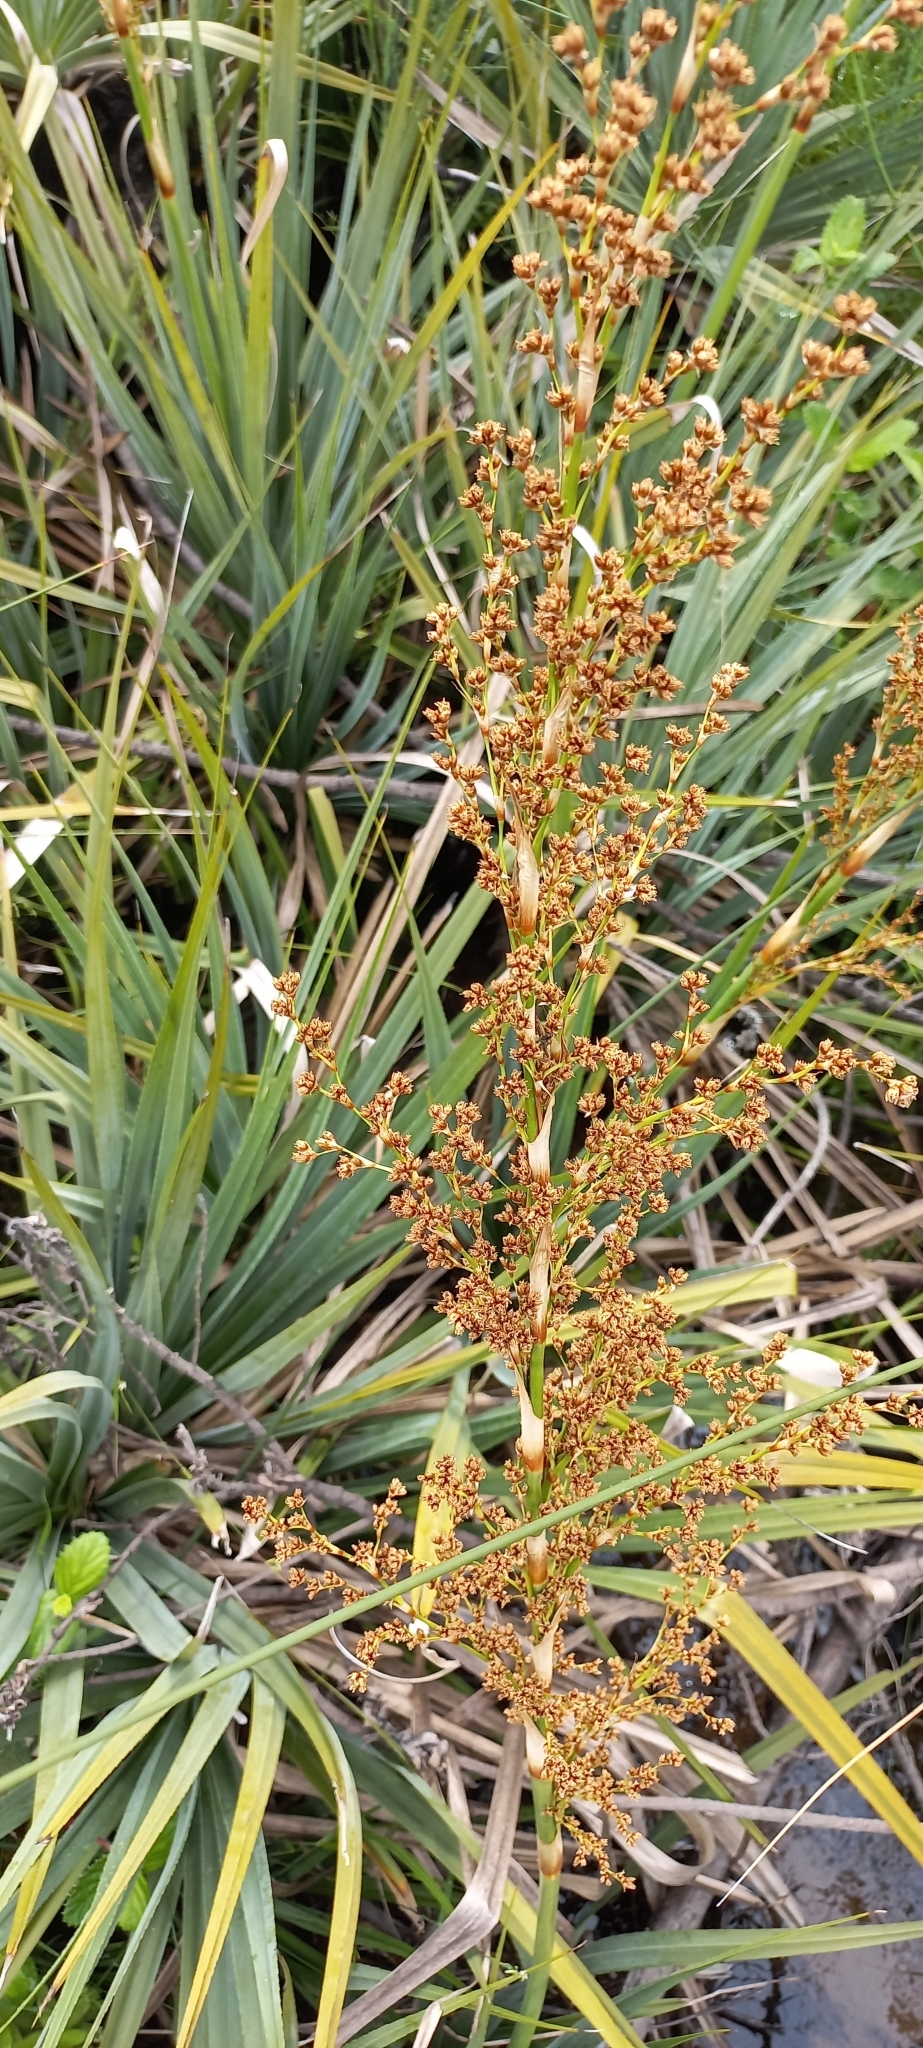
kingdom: Plantae
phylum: Tracheophyta
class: Liliopsida
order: Poales
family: Thurniaceae
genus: Prionium
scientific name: Prionium serratum
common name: Palmiet
